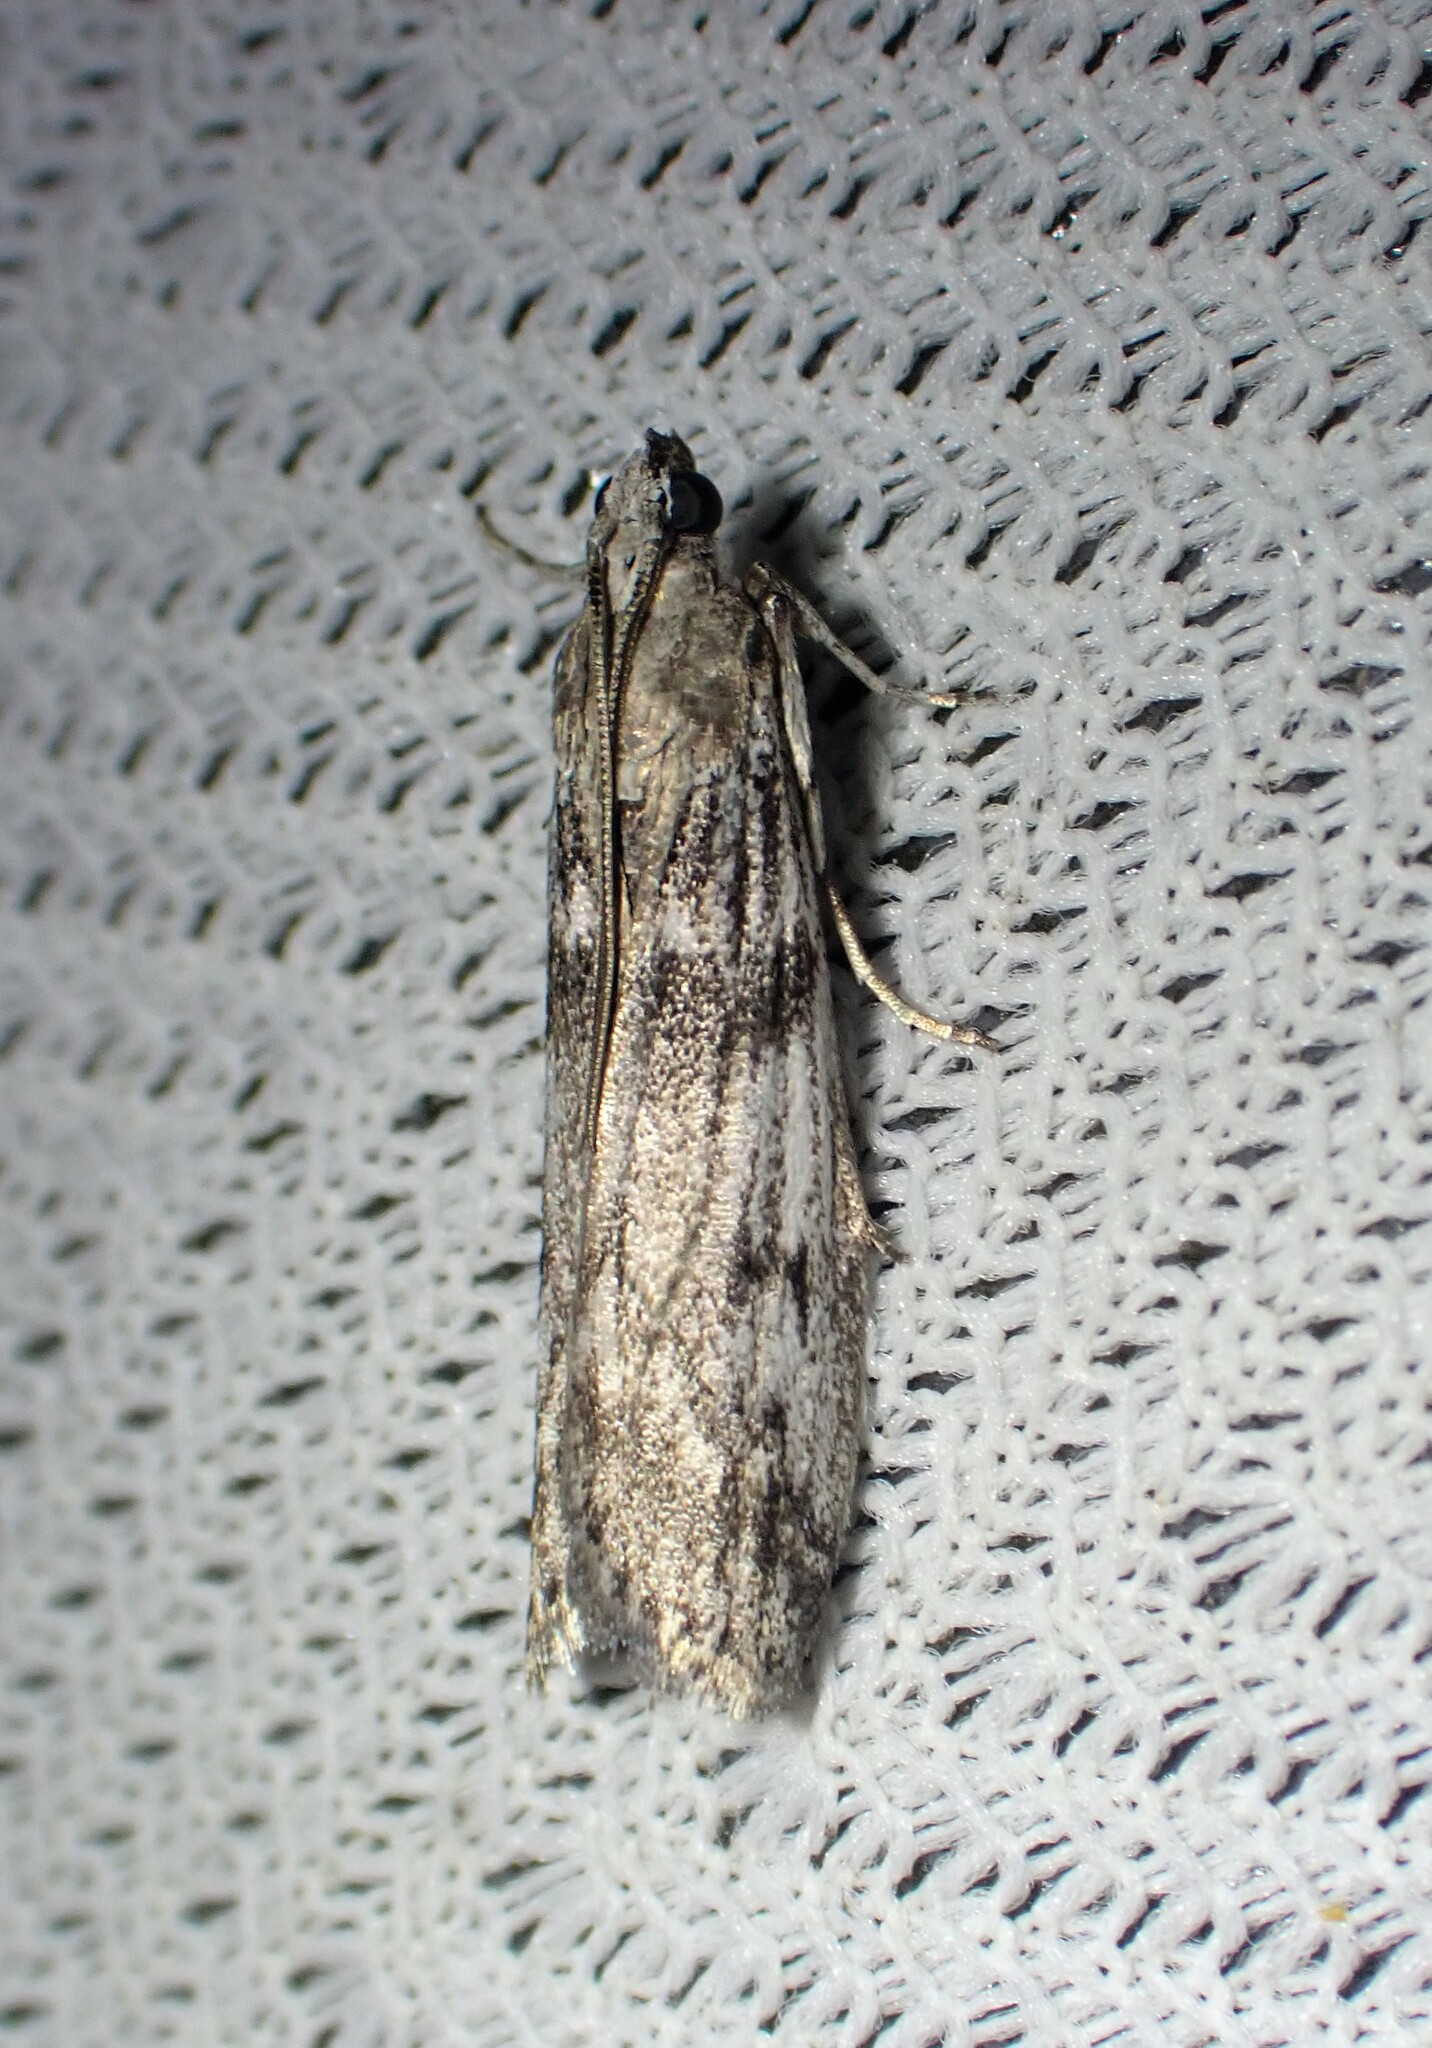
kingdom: Animalia
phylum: Arthropoda
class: Insecta
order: Lepidoptera
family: Pyralidae
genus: Zophodia
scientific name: Zophodia convolutella
